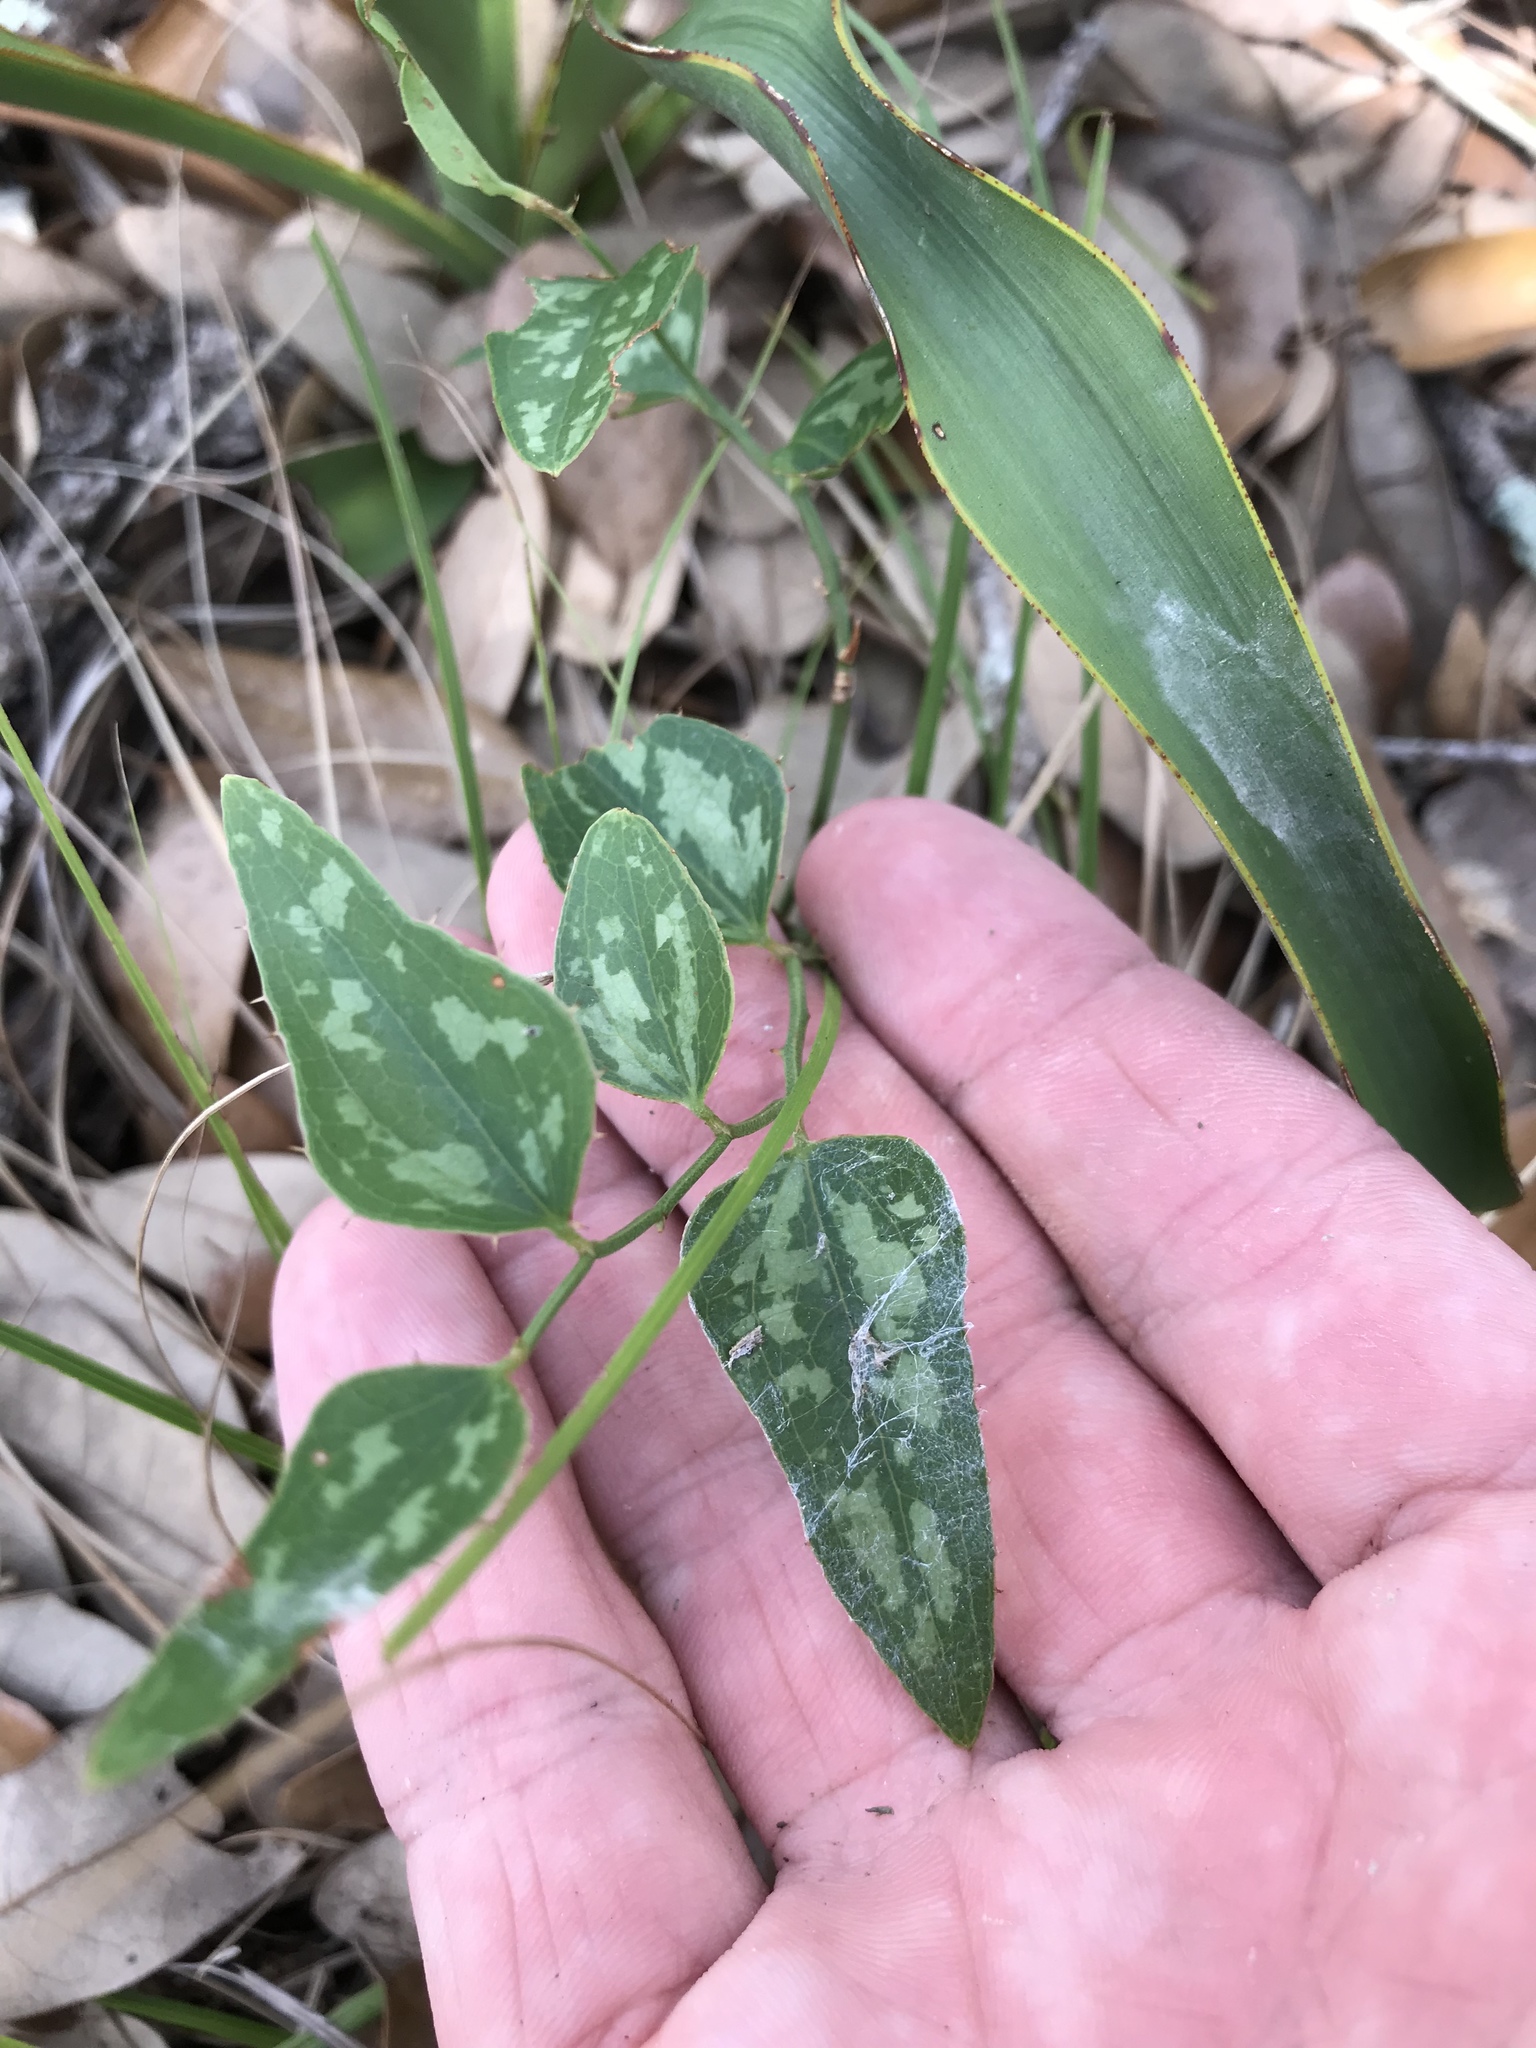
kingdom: Plantae
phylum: Tracheophyta
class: Liliopsida
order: Liliales
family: Smilacaceae
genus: Smilax
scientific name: Smilax bona-nox
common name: Catbrier
